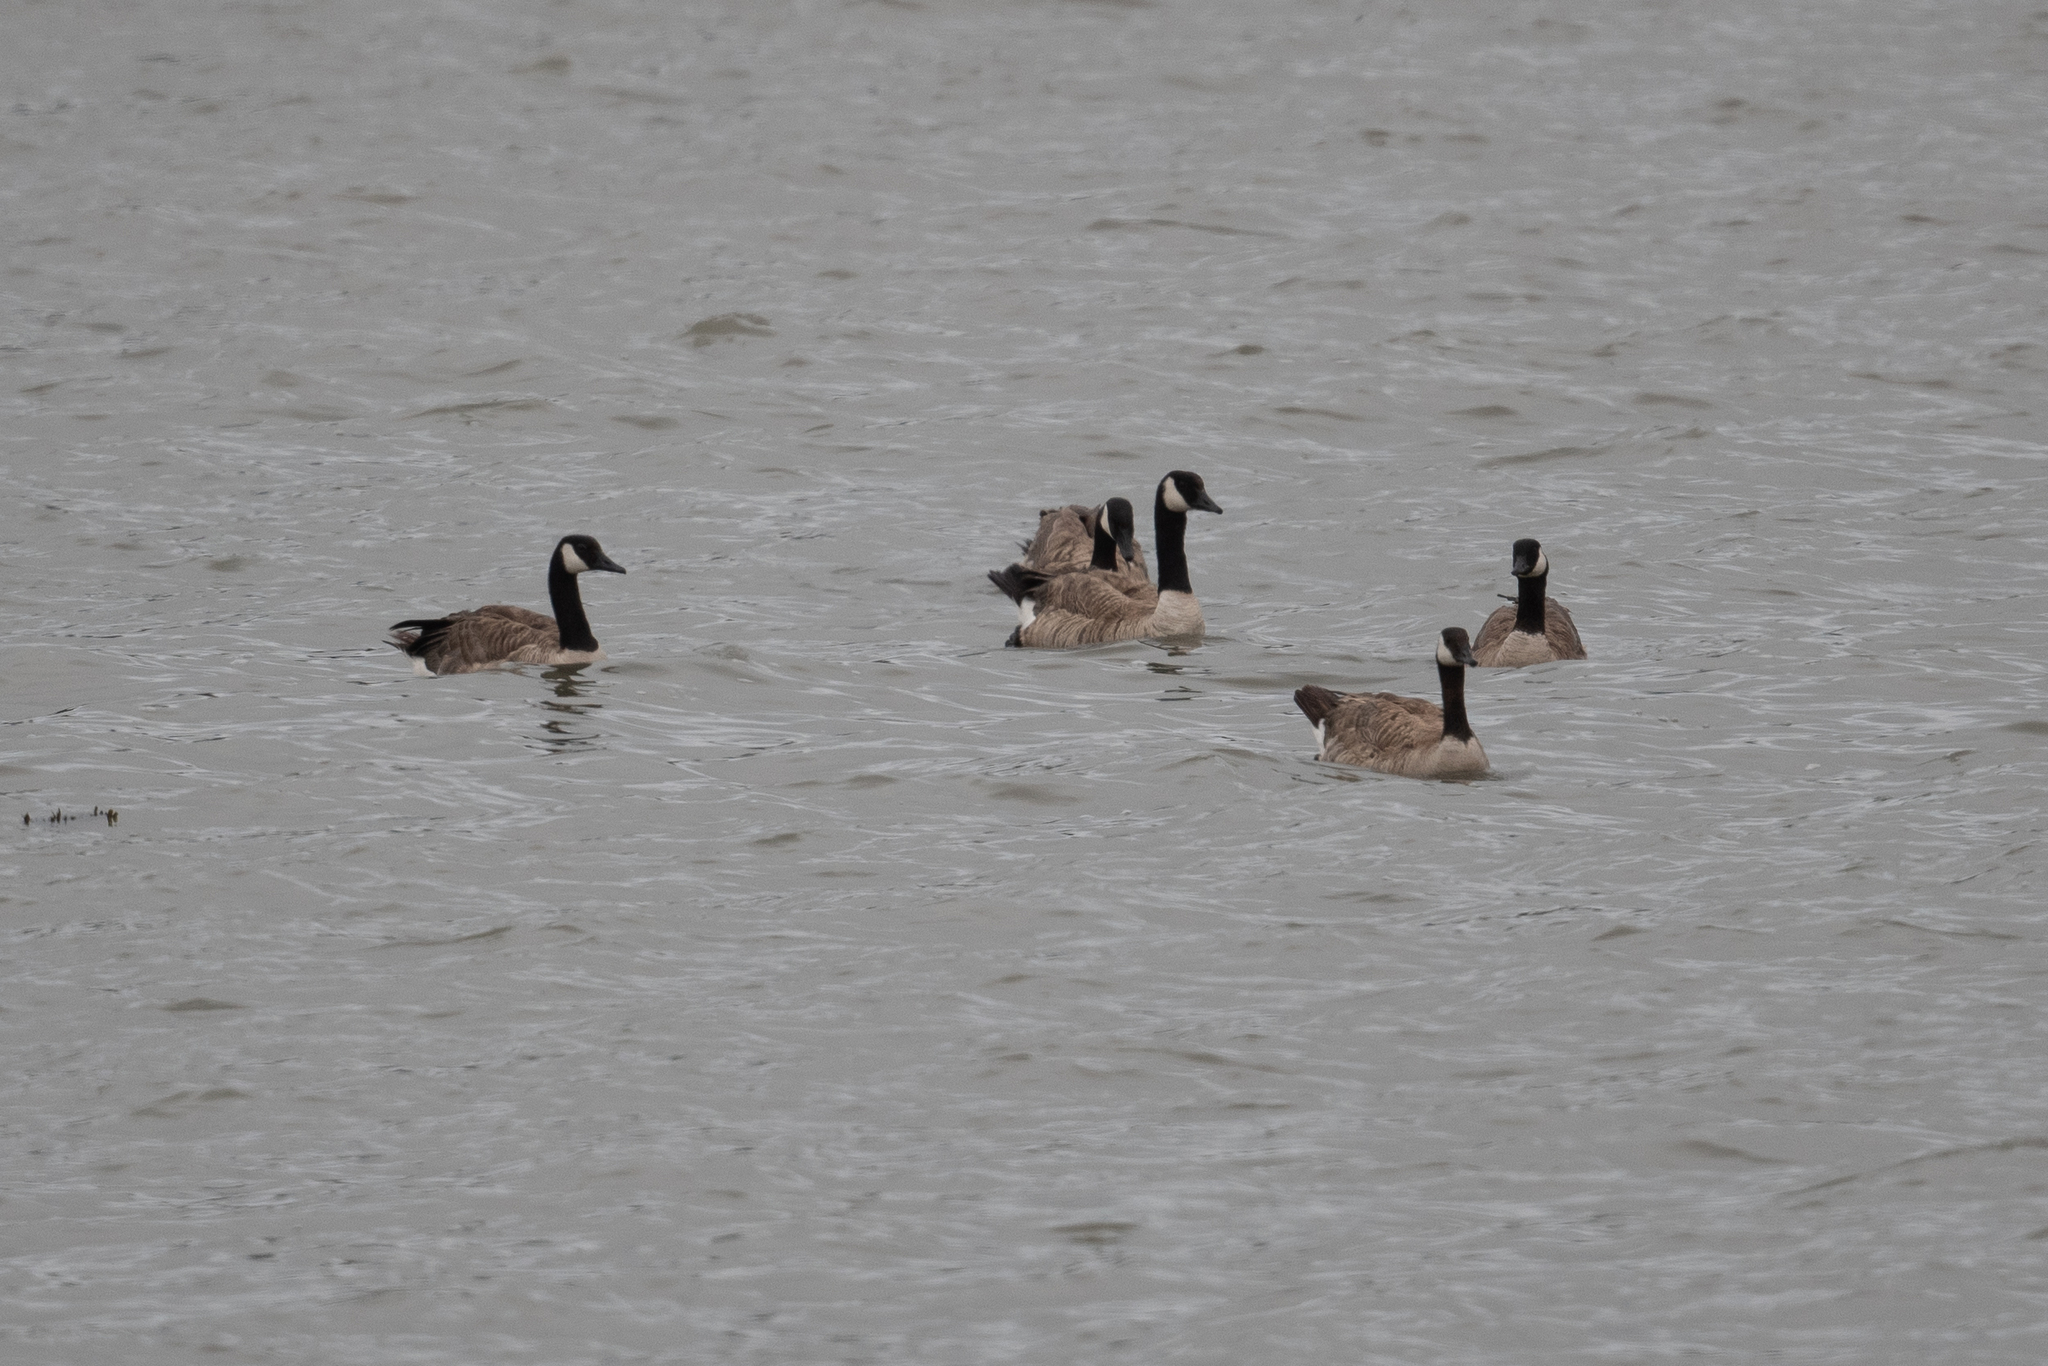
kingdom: Animalia
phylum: Chordata
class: Aves
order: Anseriformes
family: Anatidae
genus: Branta
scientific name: Branta canadensis
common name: Canada goose
